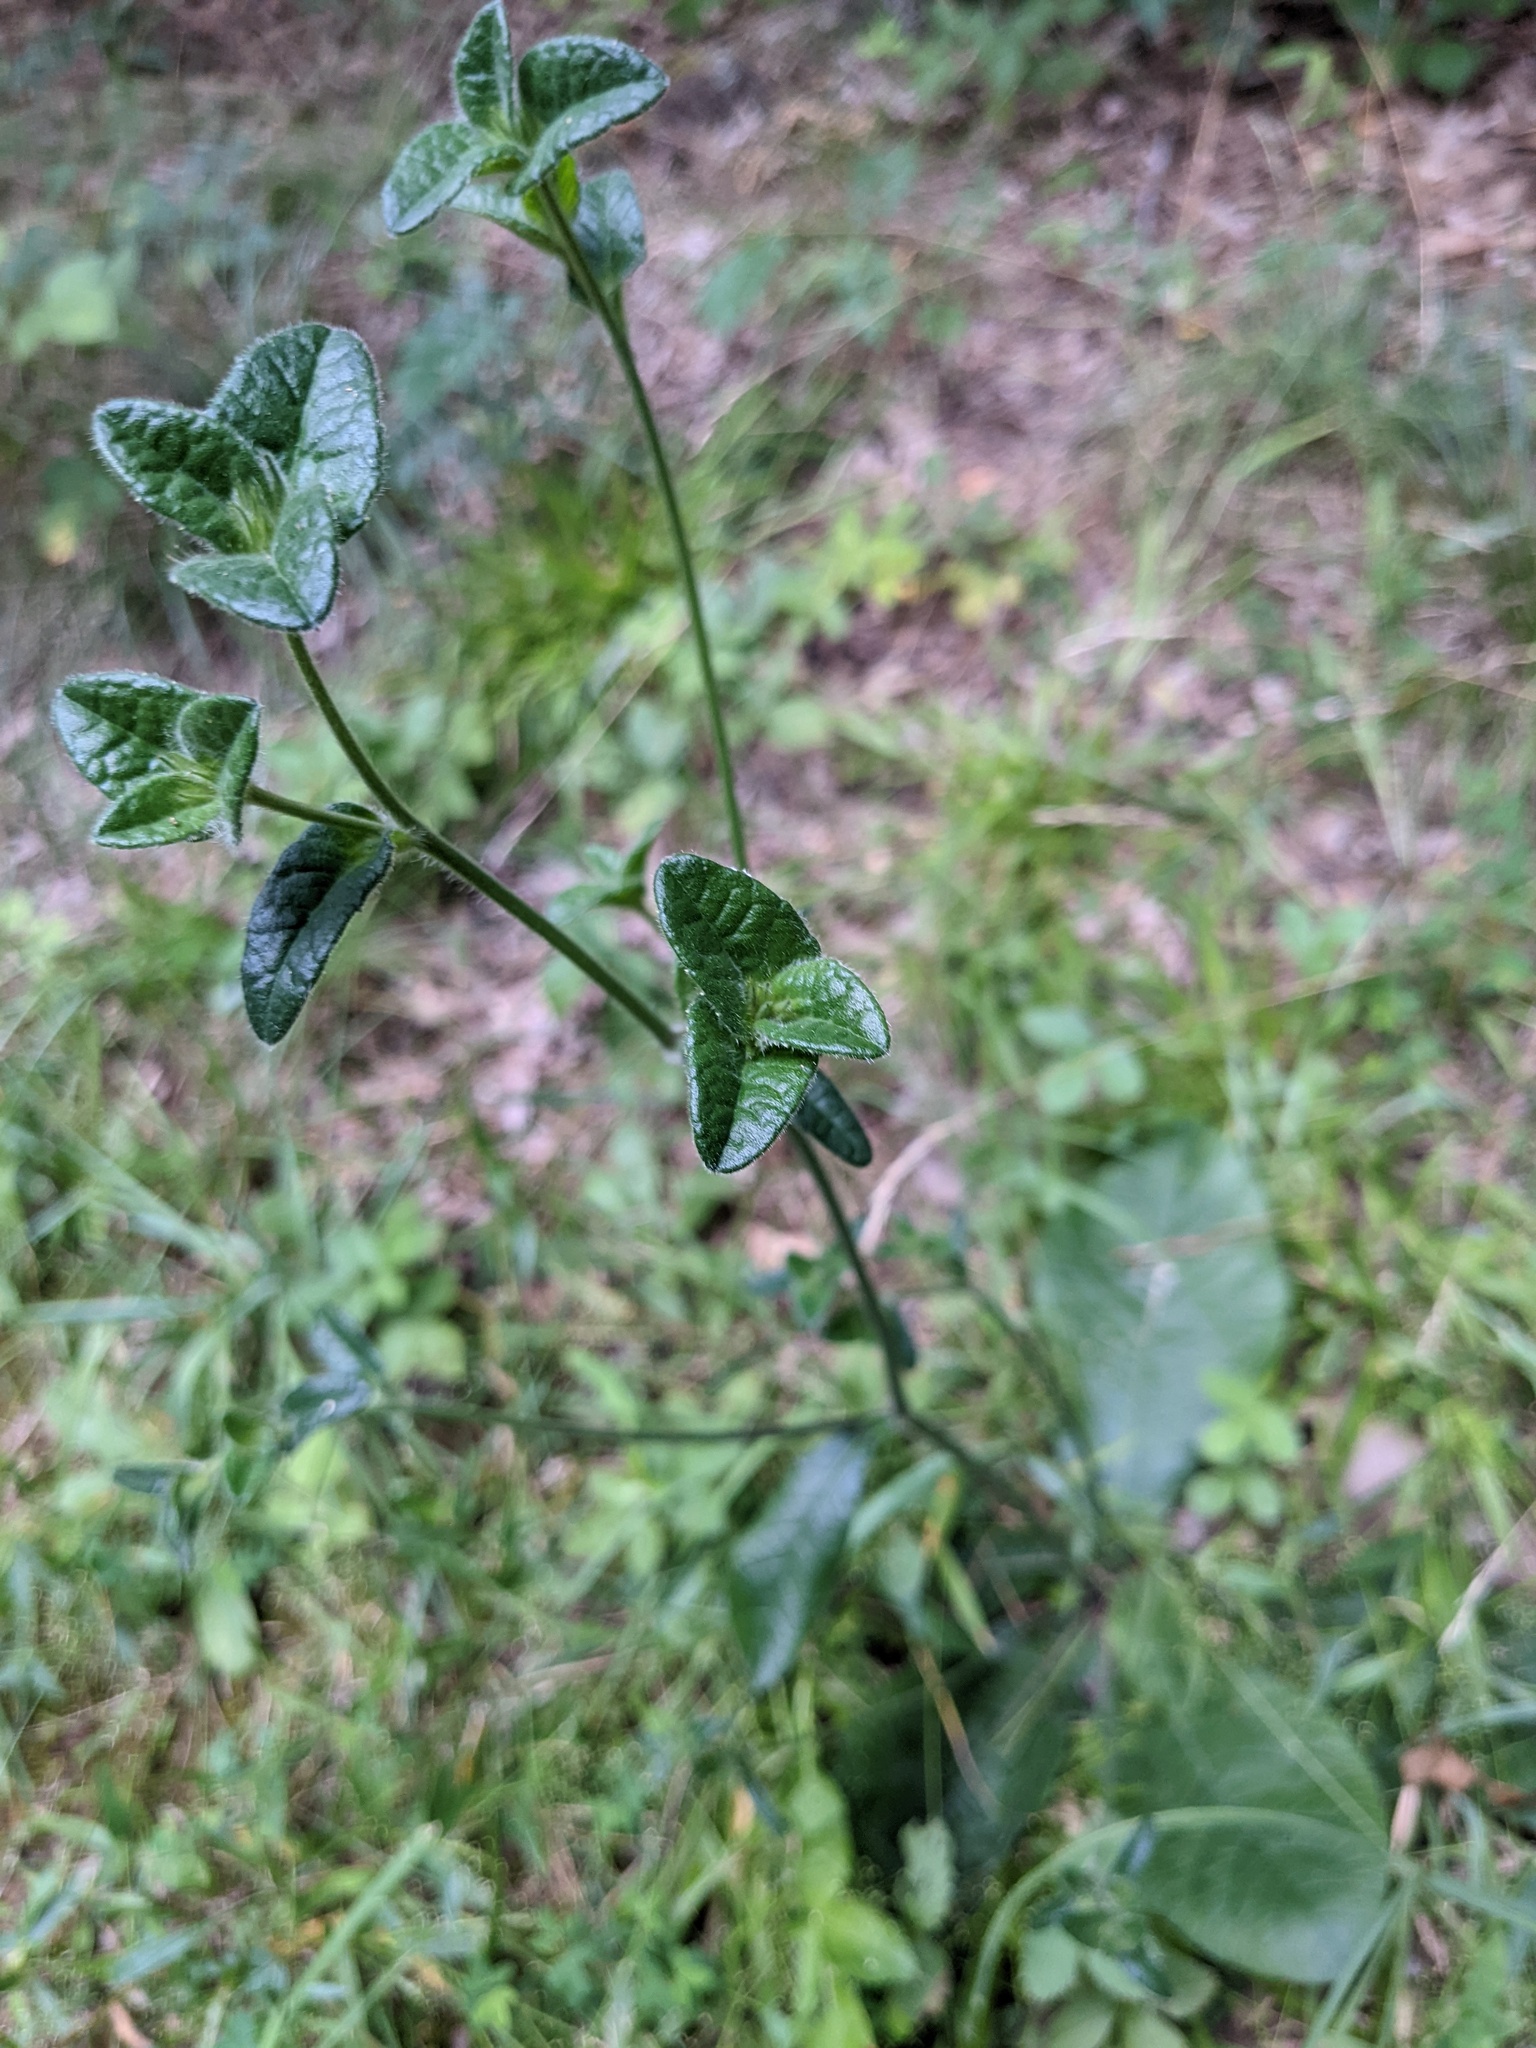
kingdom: Plantae
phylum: Tracheophyta
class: Magnoliopsida
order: Asterales
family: Asteraceae
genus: Elephantopus
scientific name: Elephantopus tomentosus
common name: Tobacco-weed
